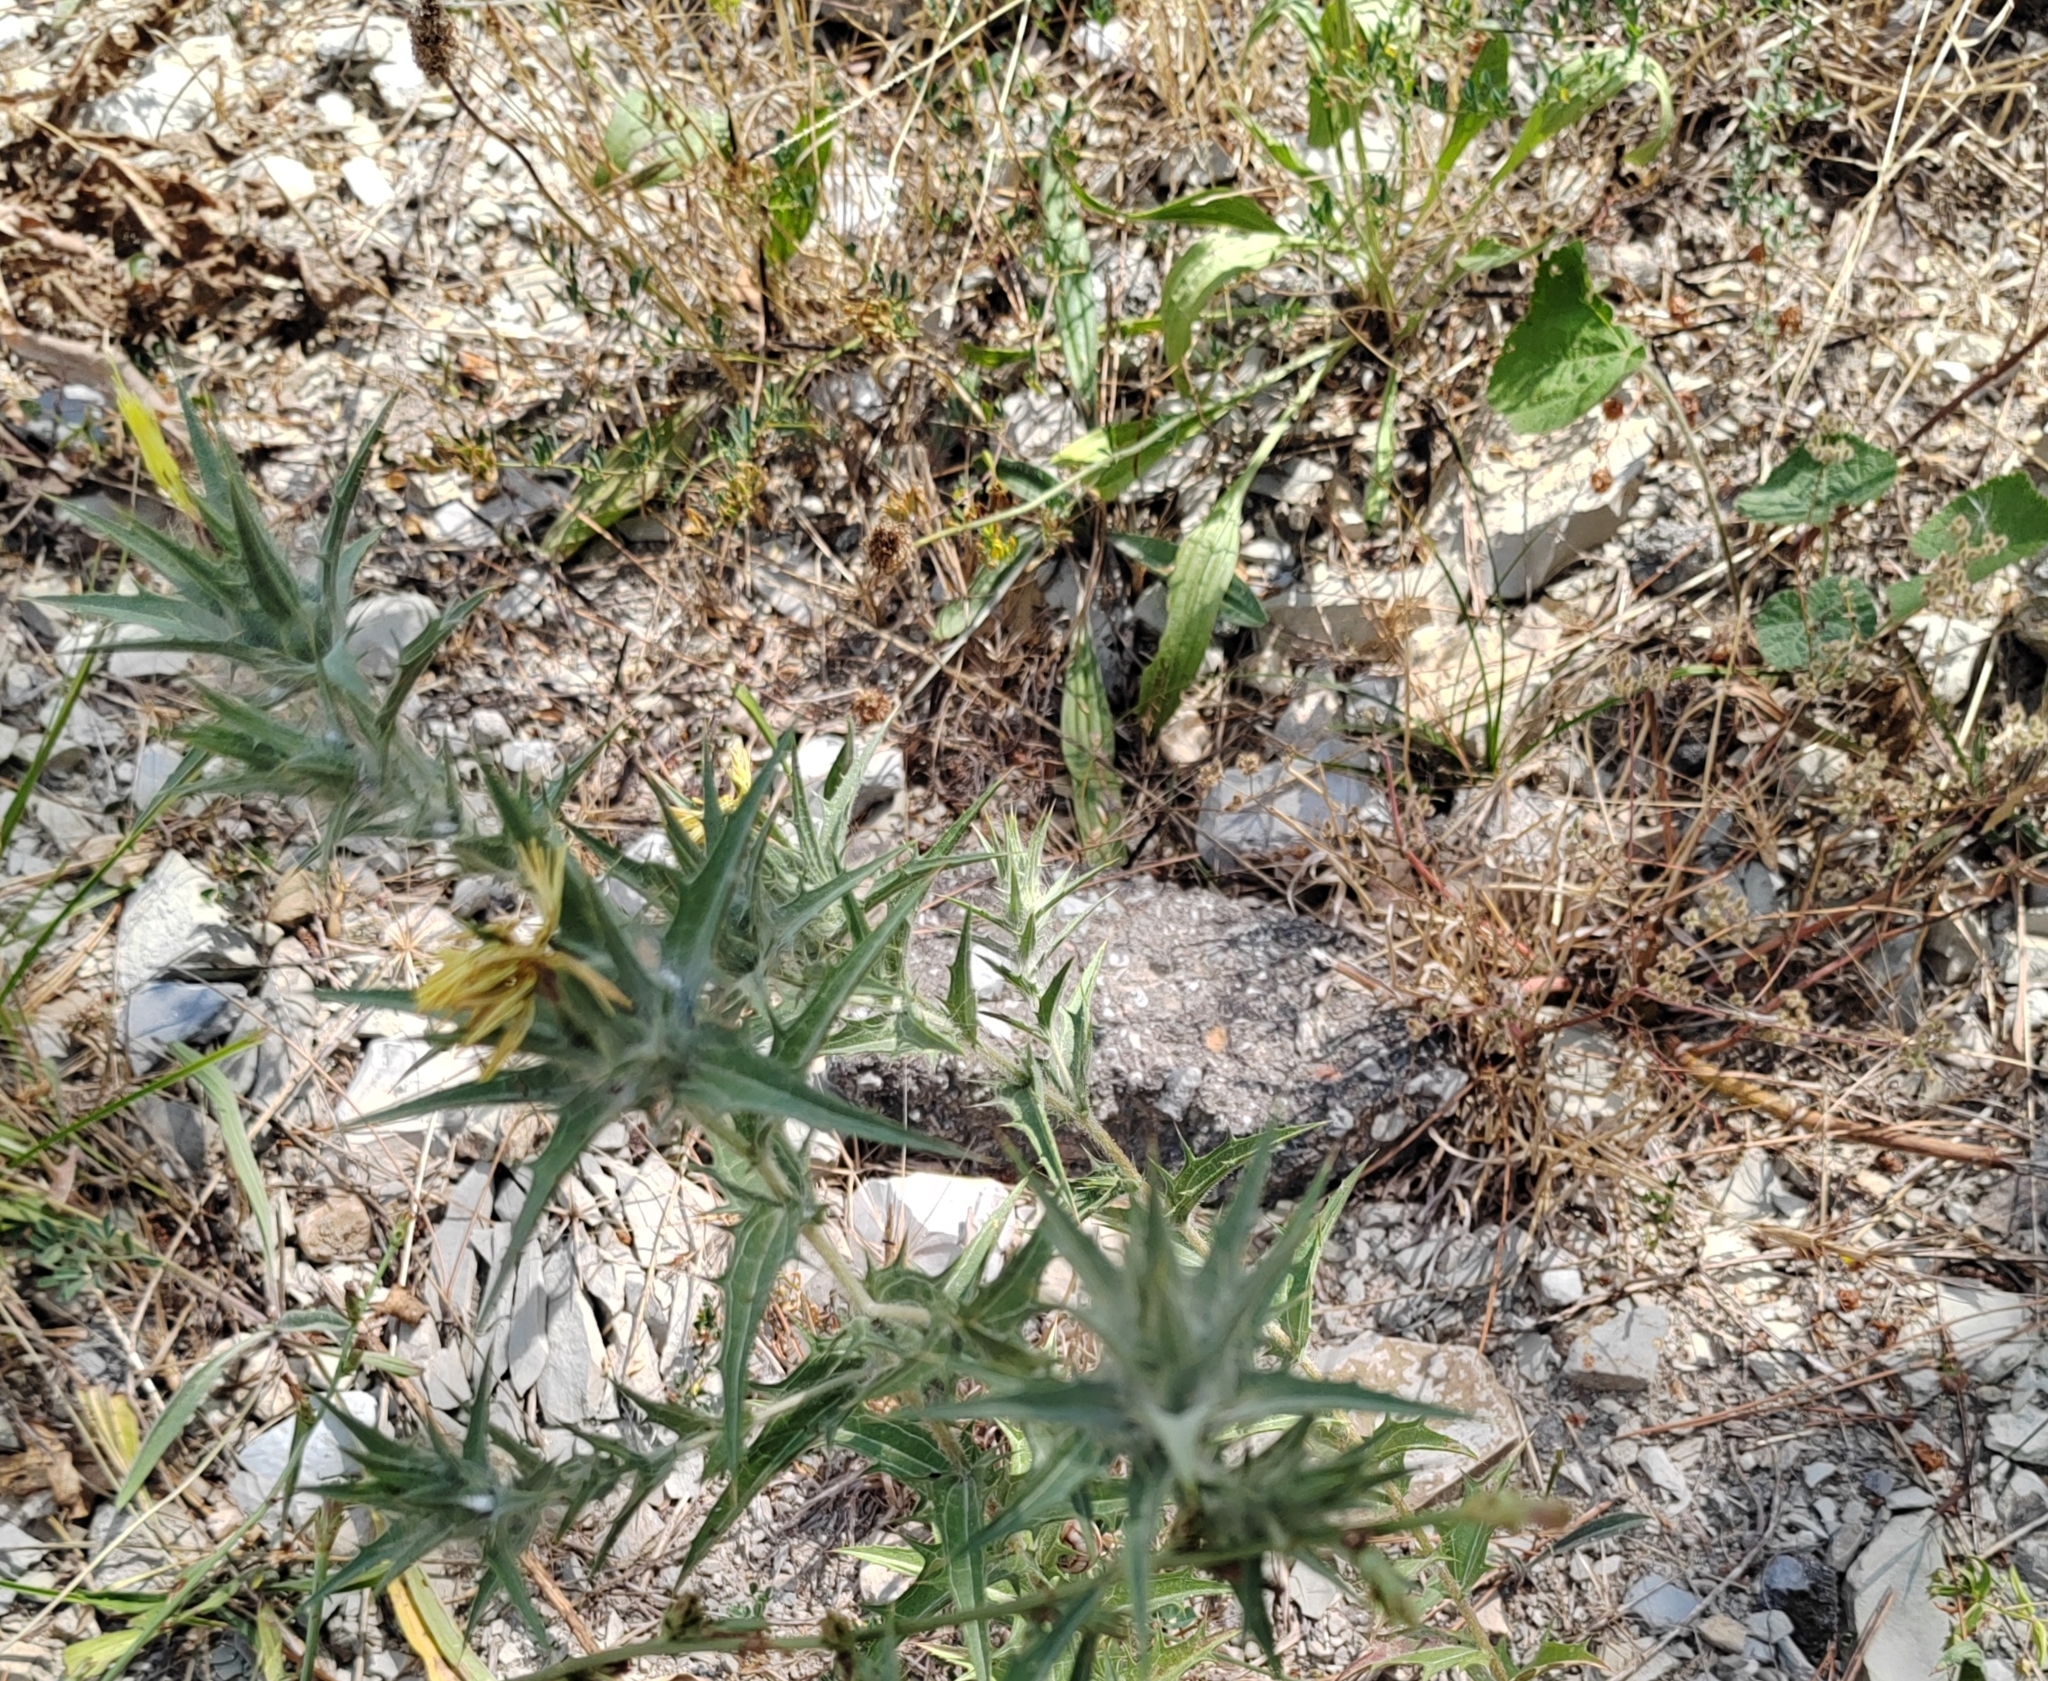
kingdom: Plantae
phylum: Tracheophyta
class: Magnoliopsida
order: Asterales
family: Asteraceae
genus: Carthamus
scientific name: Carthamus lanatus
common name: Downy safflower
